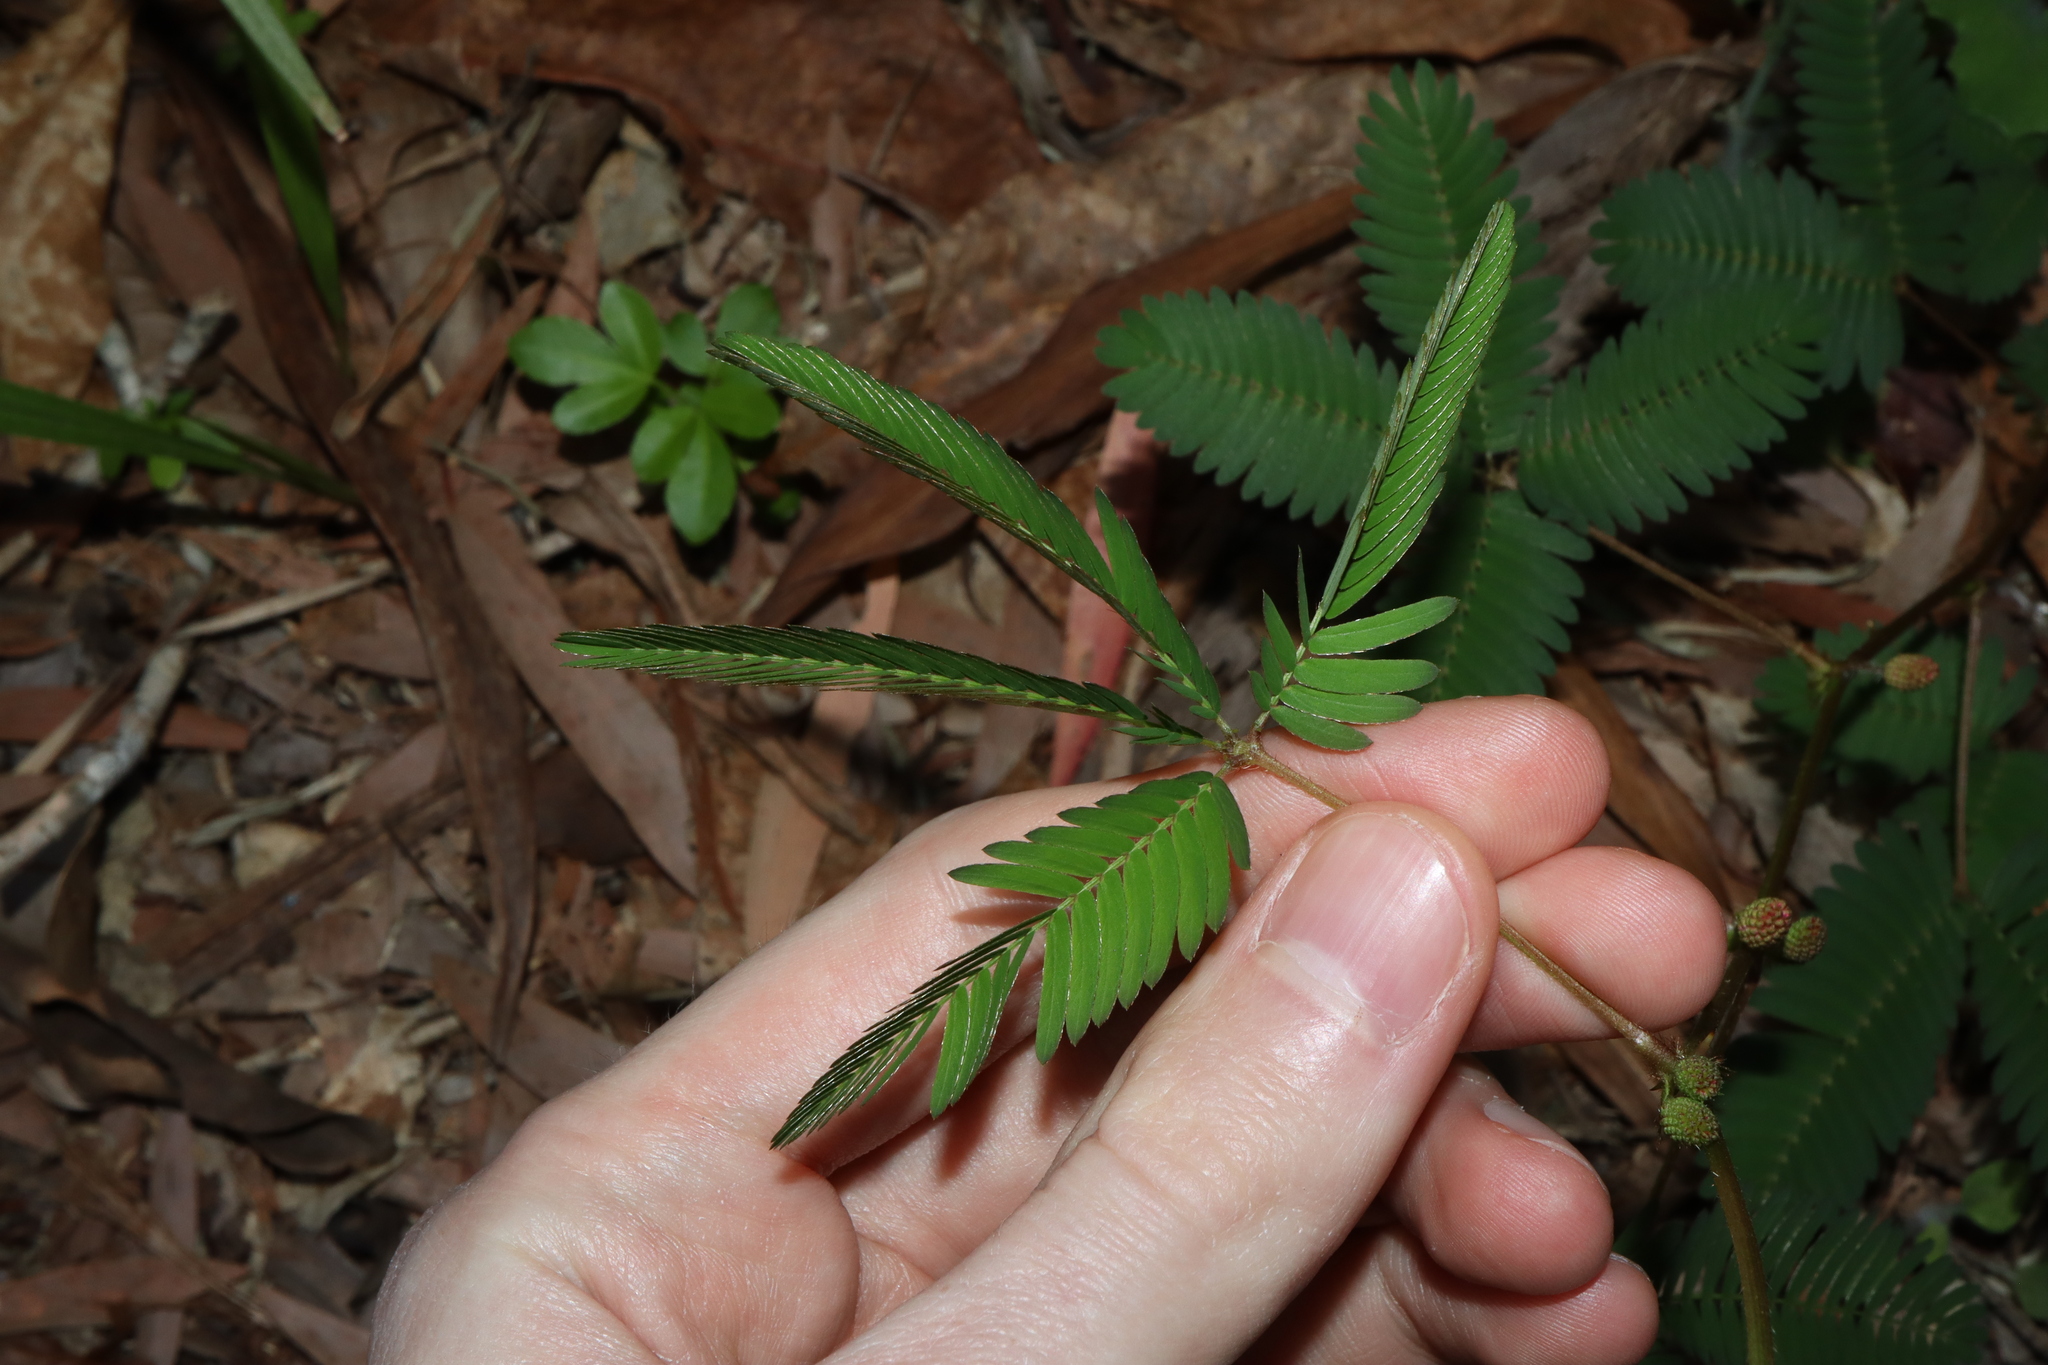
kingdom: Plantae
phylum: Tracheophyta
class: Magnoliopsida
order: Fabales
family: Fabaceae
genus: Mimosa
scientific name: Mimosa pudica
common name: Sensitive plant
